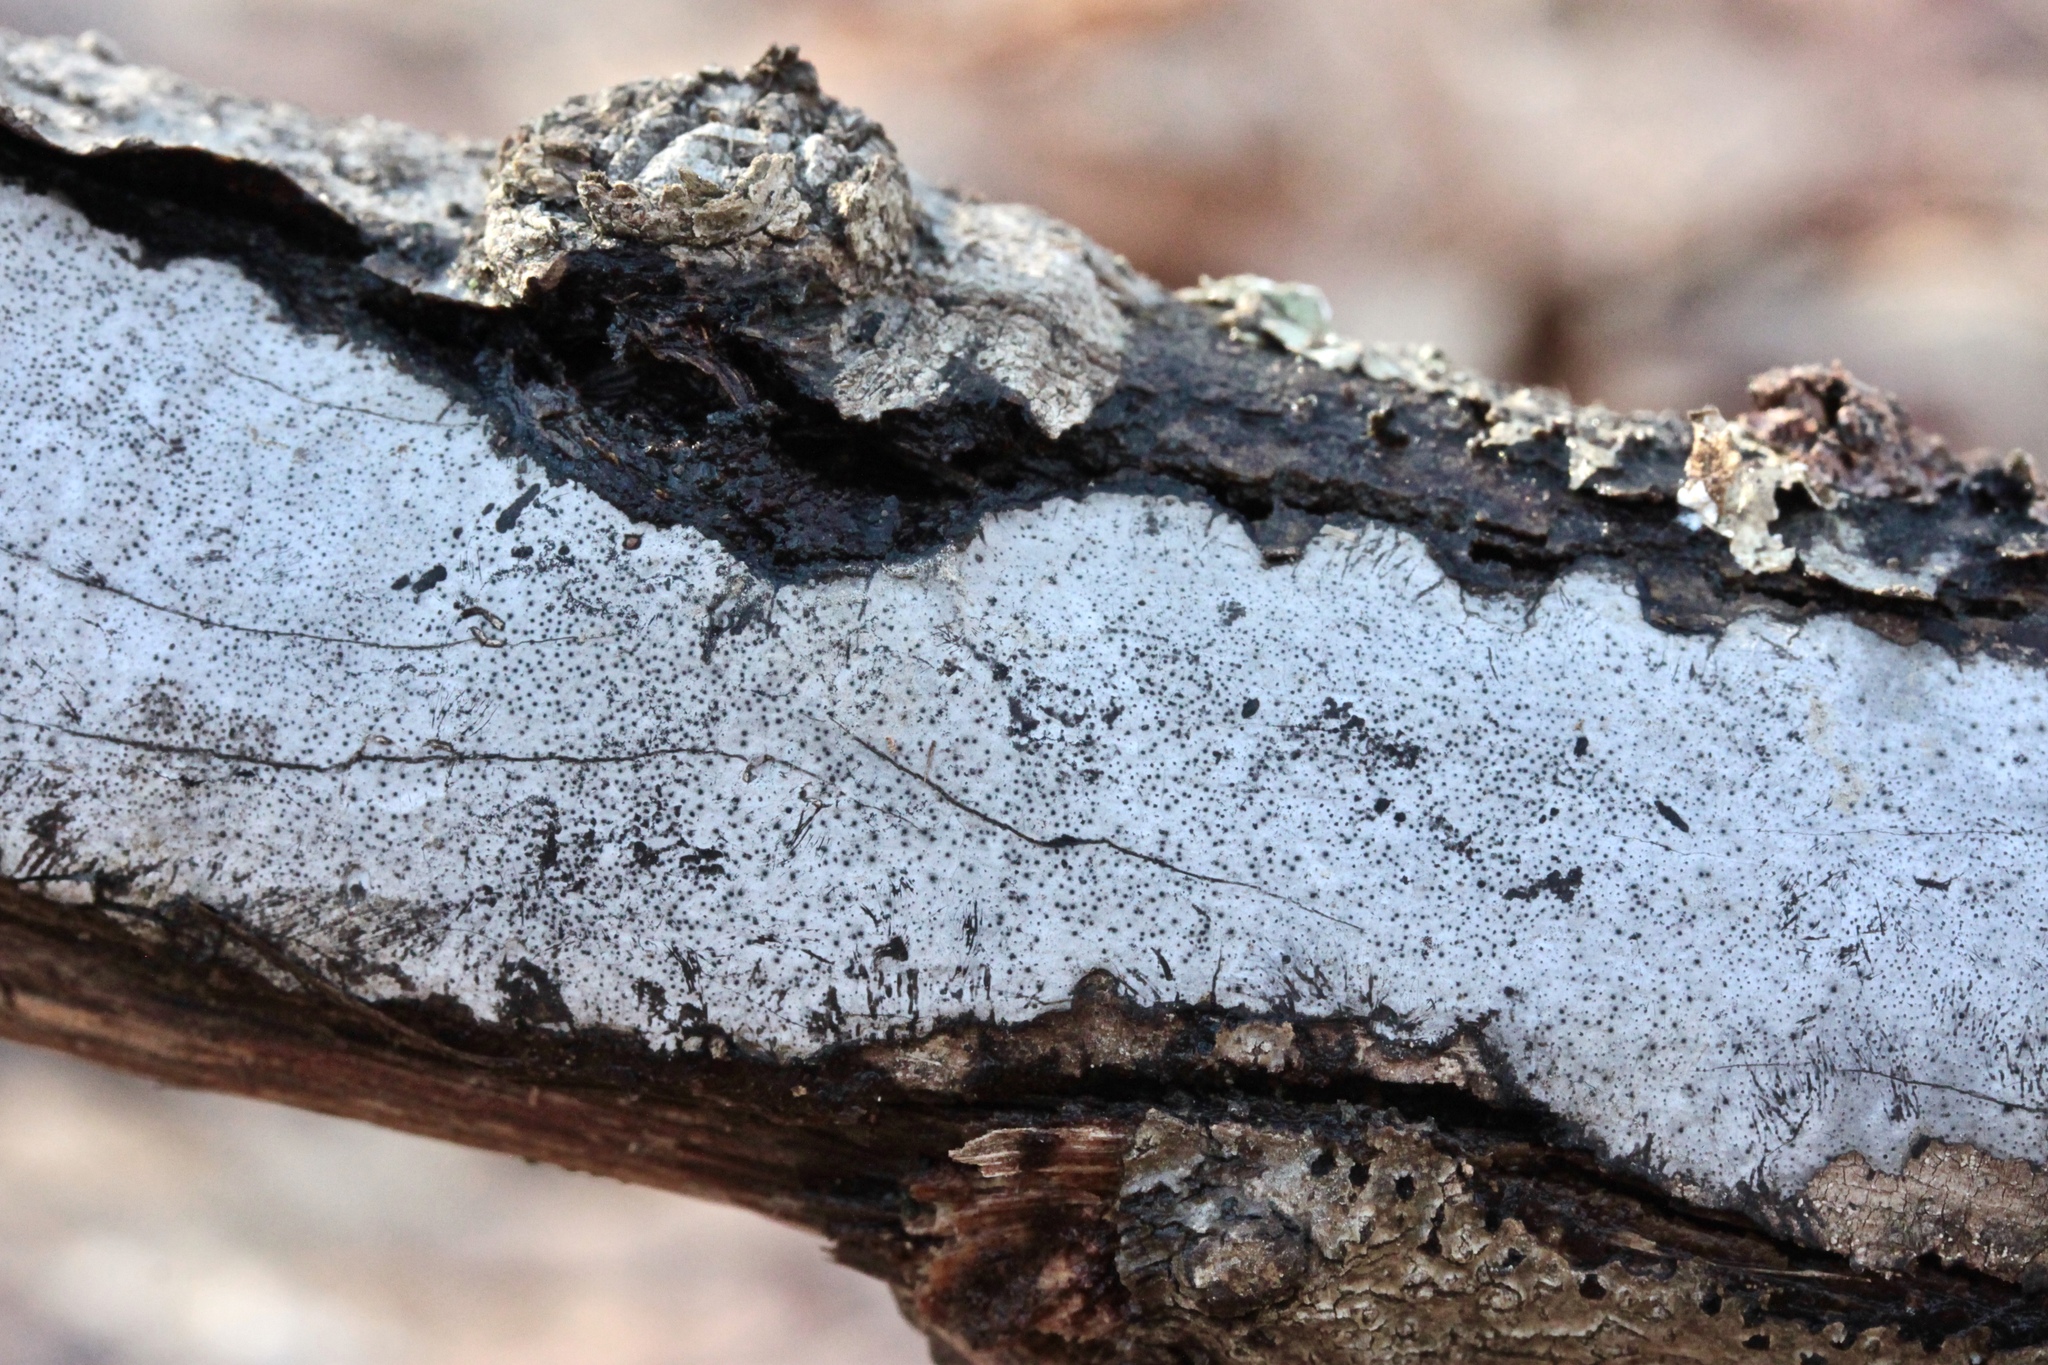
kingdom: Fungi
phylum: Ascomycota
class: Sordariomycetes
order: Xylariales
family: Graphostromataceae
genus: Biscogniauxia
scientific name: Biscogniauxia atropunctata
